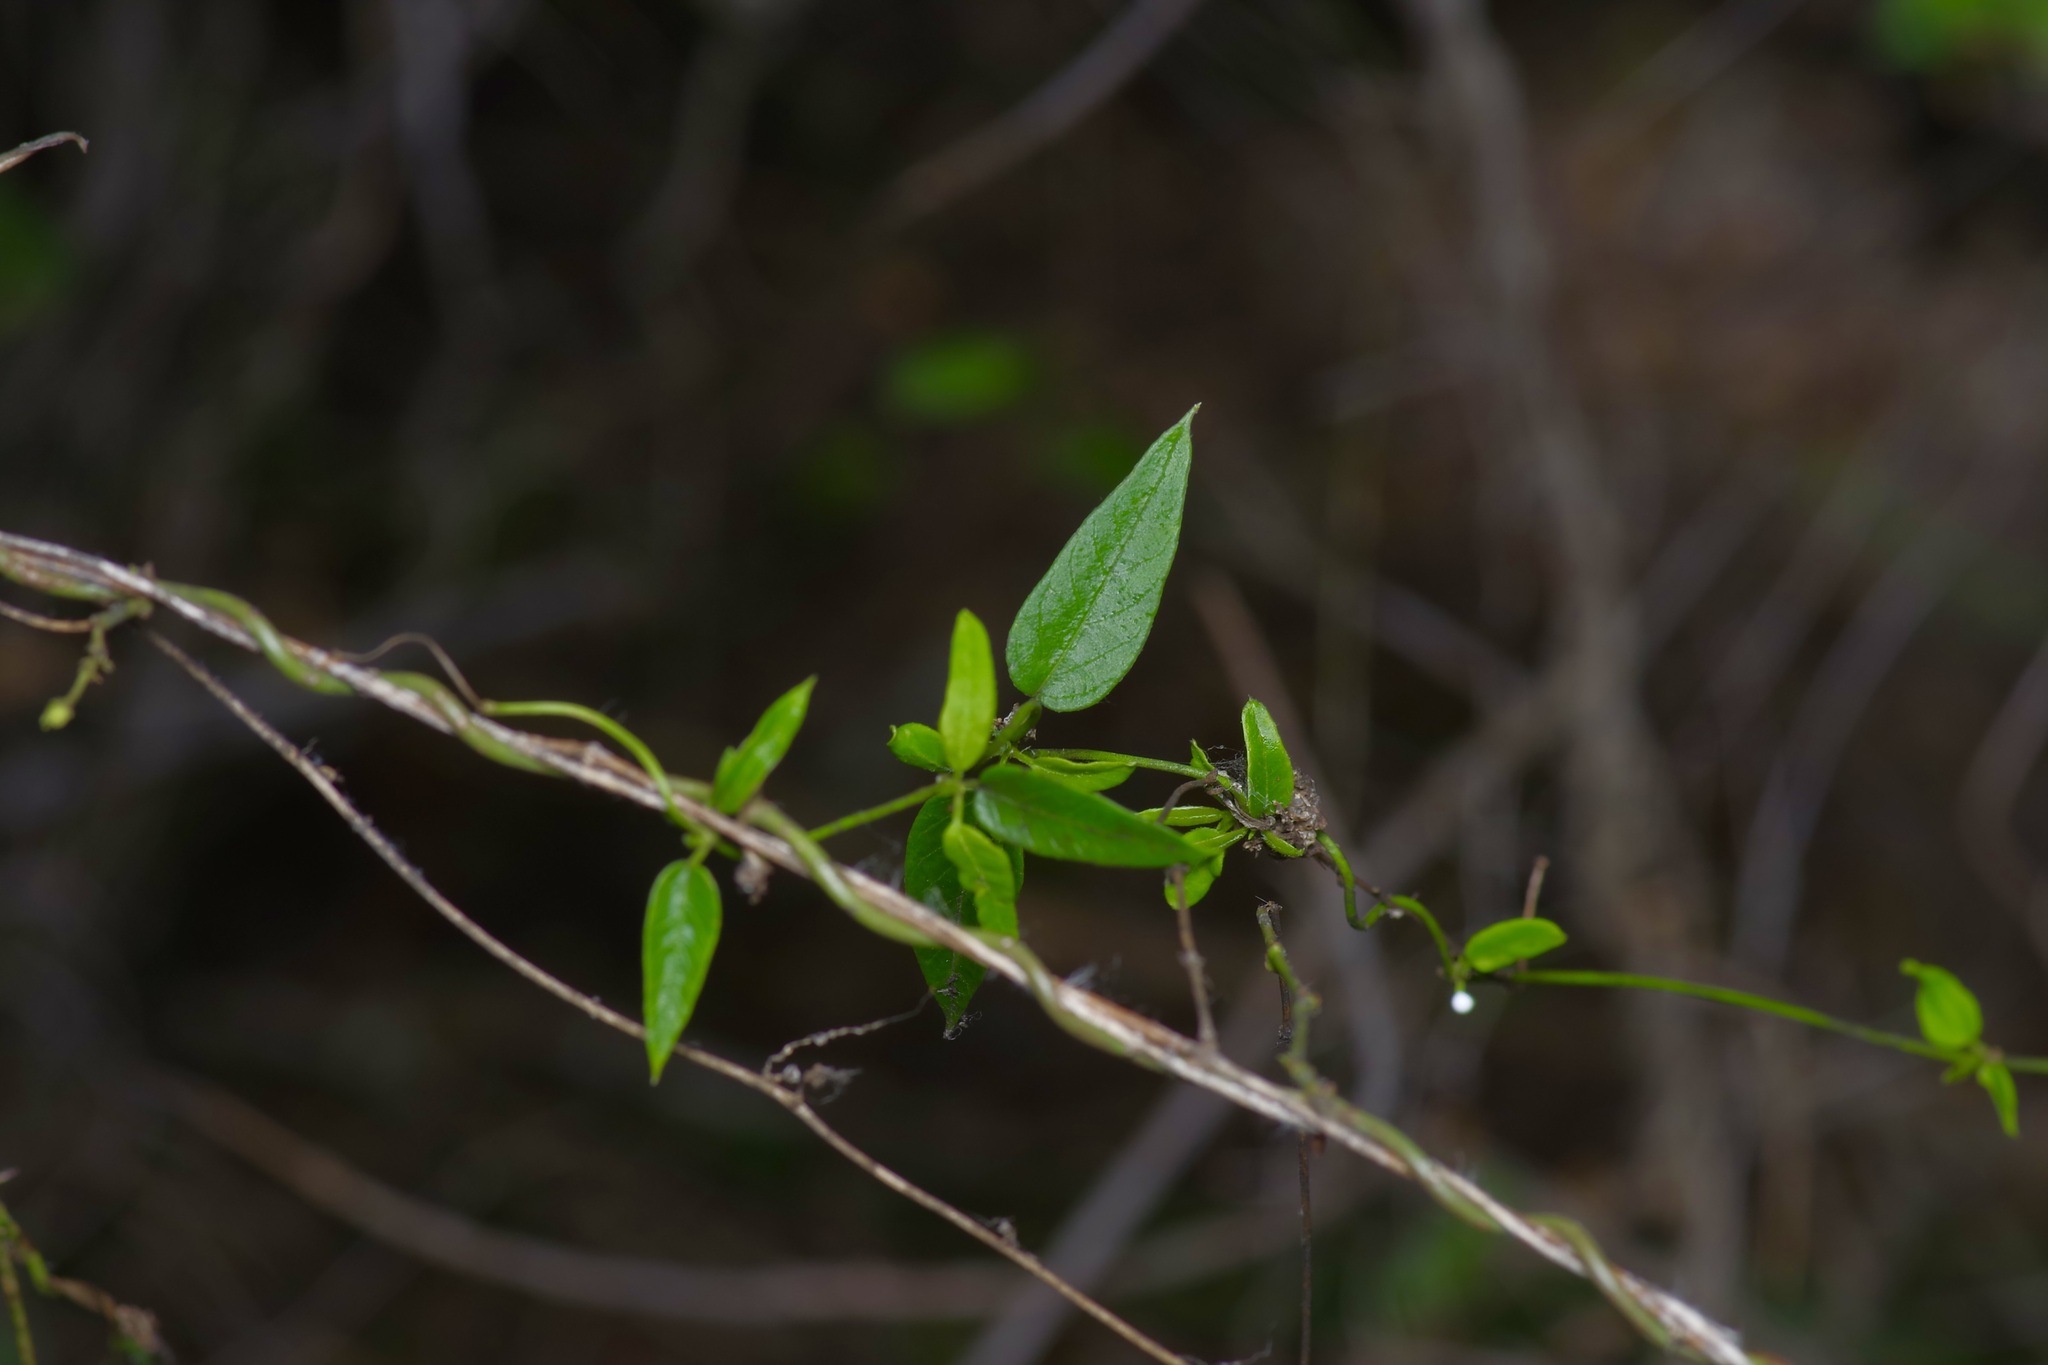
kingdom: Plantae
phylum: Tracheophyta
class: Magnoliopsida
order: Gentianales
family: Apocynaceae
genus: Metastelma
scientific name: Metastelma barbigerum
